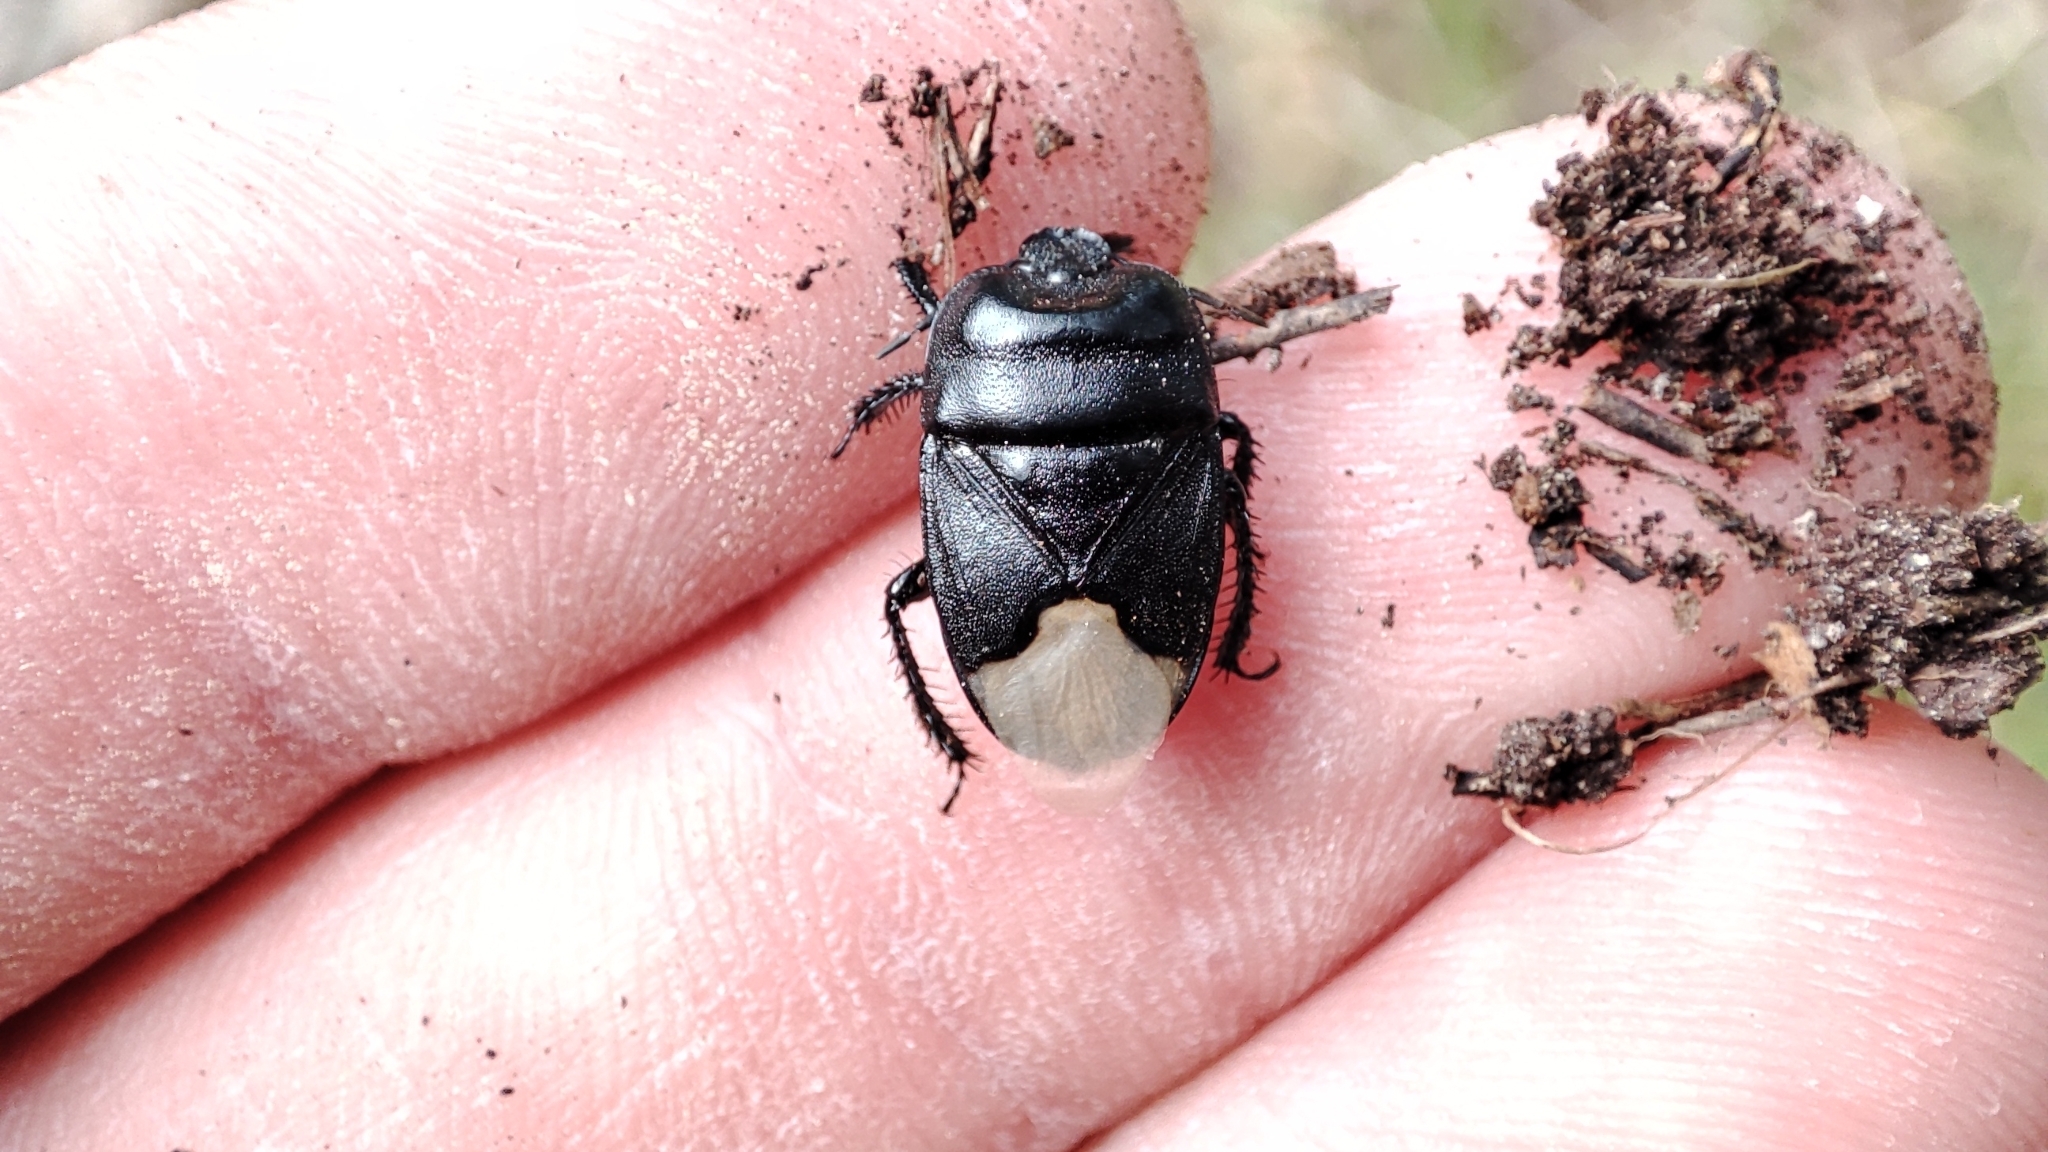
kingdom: Animalia
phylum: Arthropoda
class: Insecta
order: Hemiptera
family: Cydnidae
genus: Cydnus
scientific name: Cydnus aterrimus
